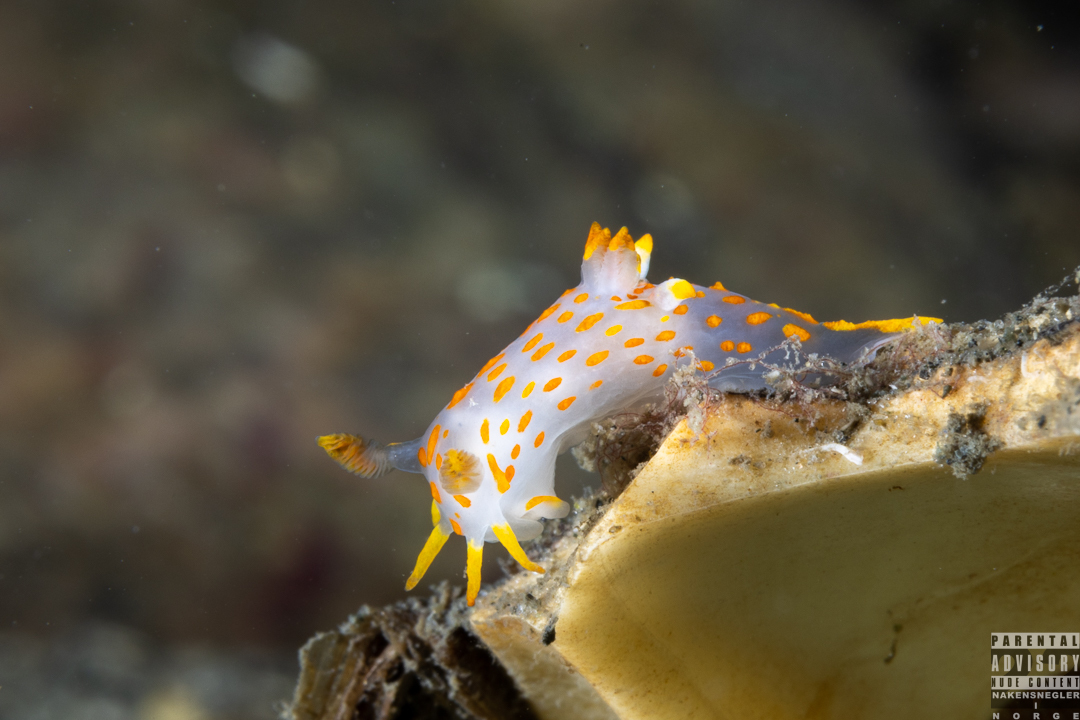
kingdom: Animalia
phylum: Mollusca
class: Gastropoda
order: Nudibranchia
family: Polyceridae
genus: Polycera
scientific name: Polycera quadrilineata
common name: Four-striped polycera
